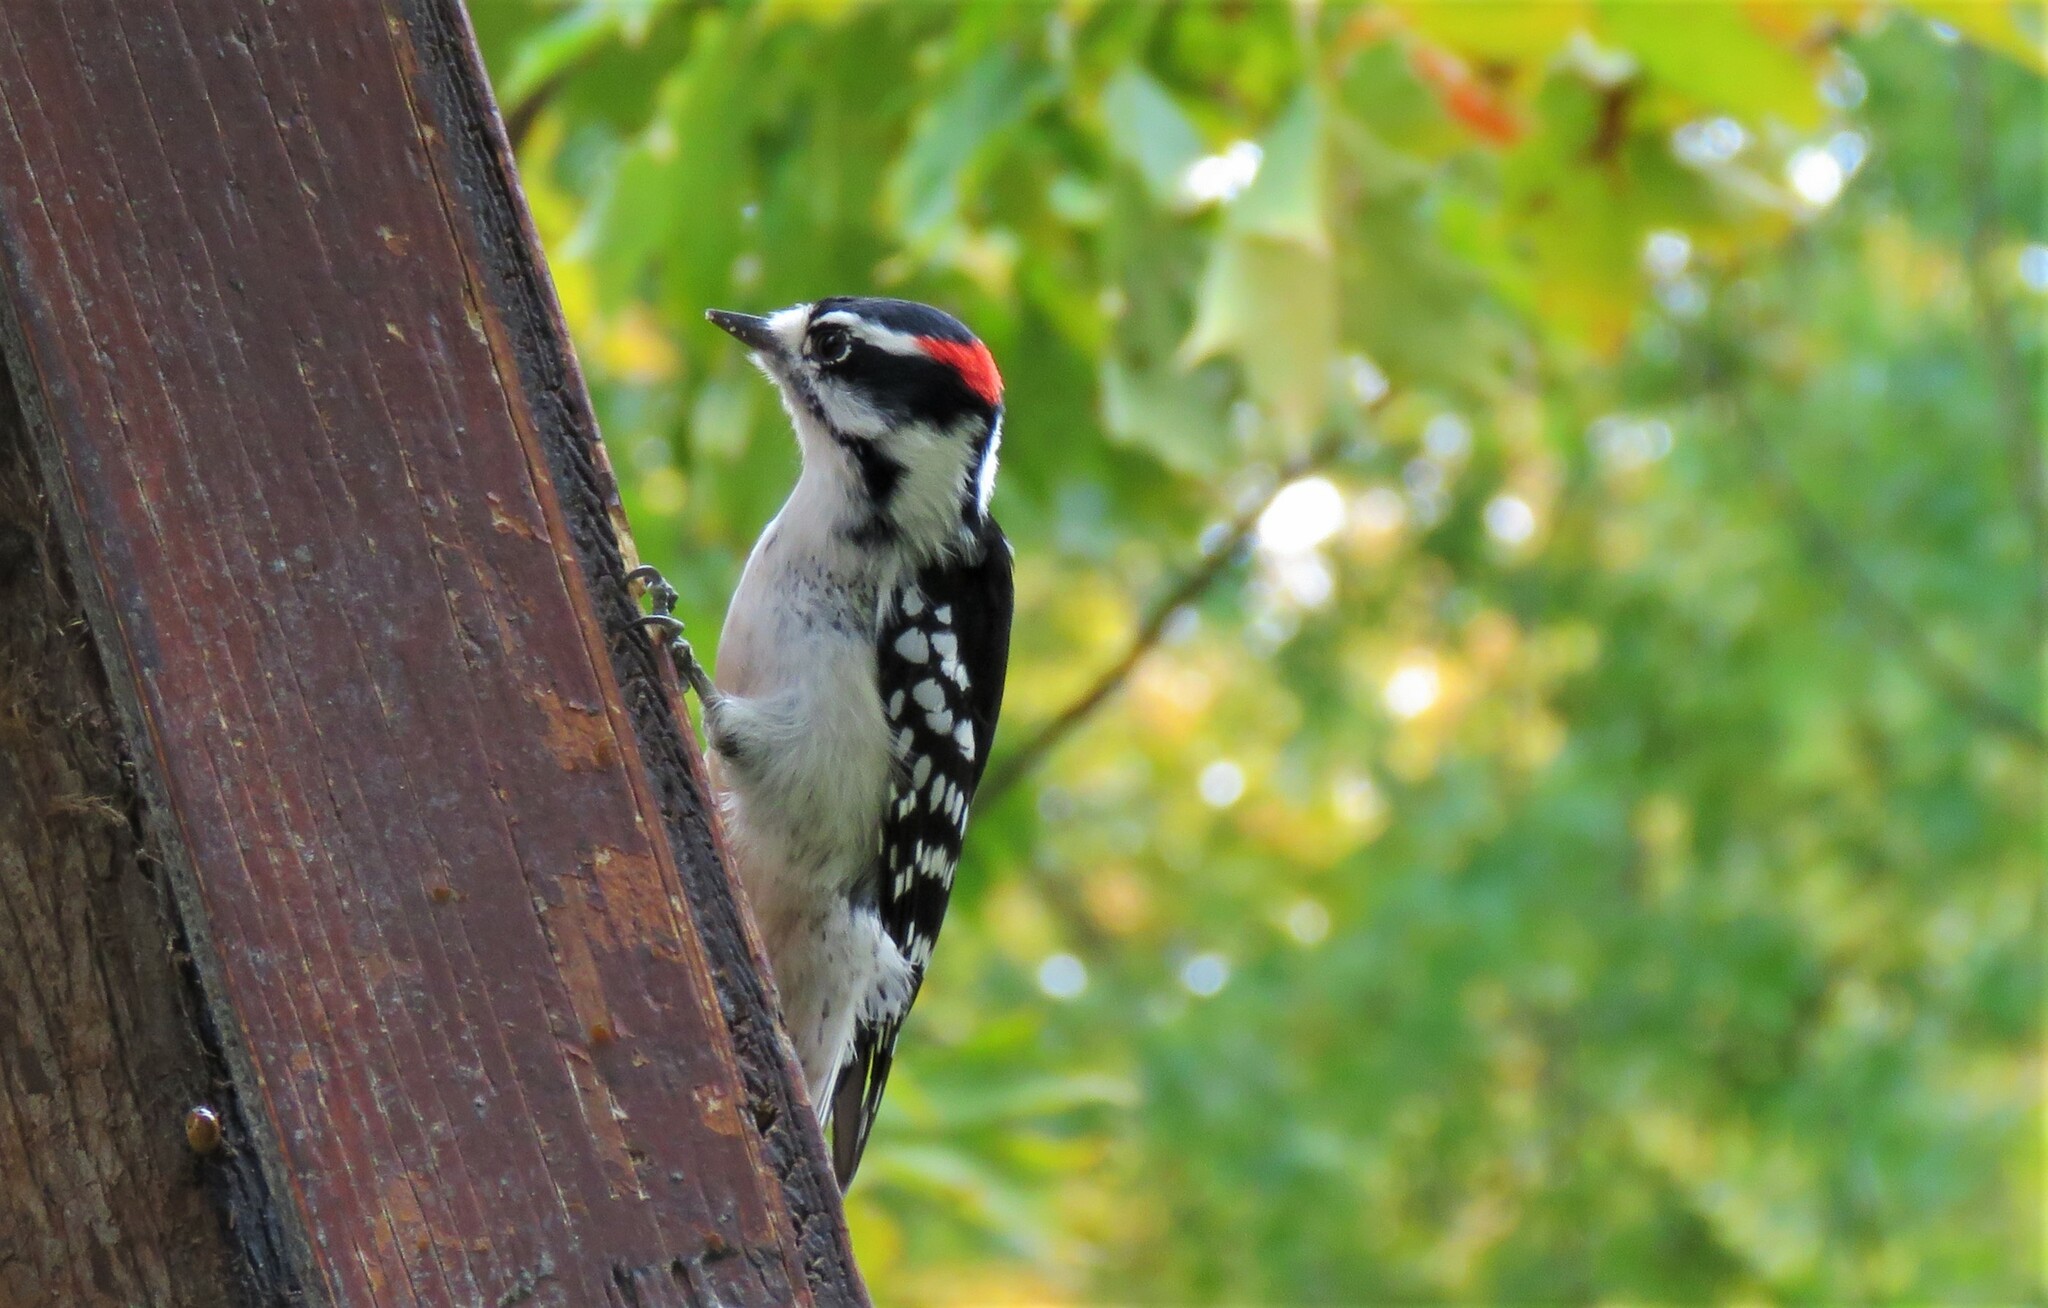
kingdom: Animalia
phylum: Chordata
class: Aves
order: Piciformes
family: Picidae
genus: Dryobates
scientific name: Dryobates pubescens
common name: Downy woodpecker
